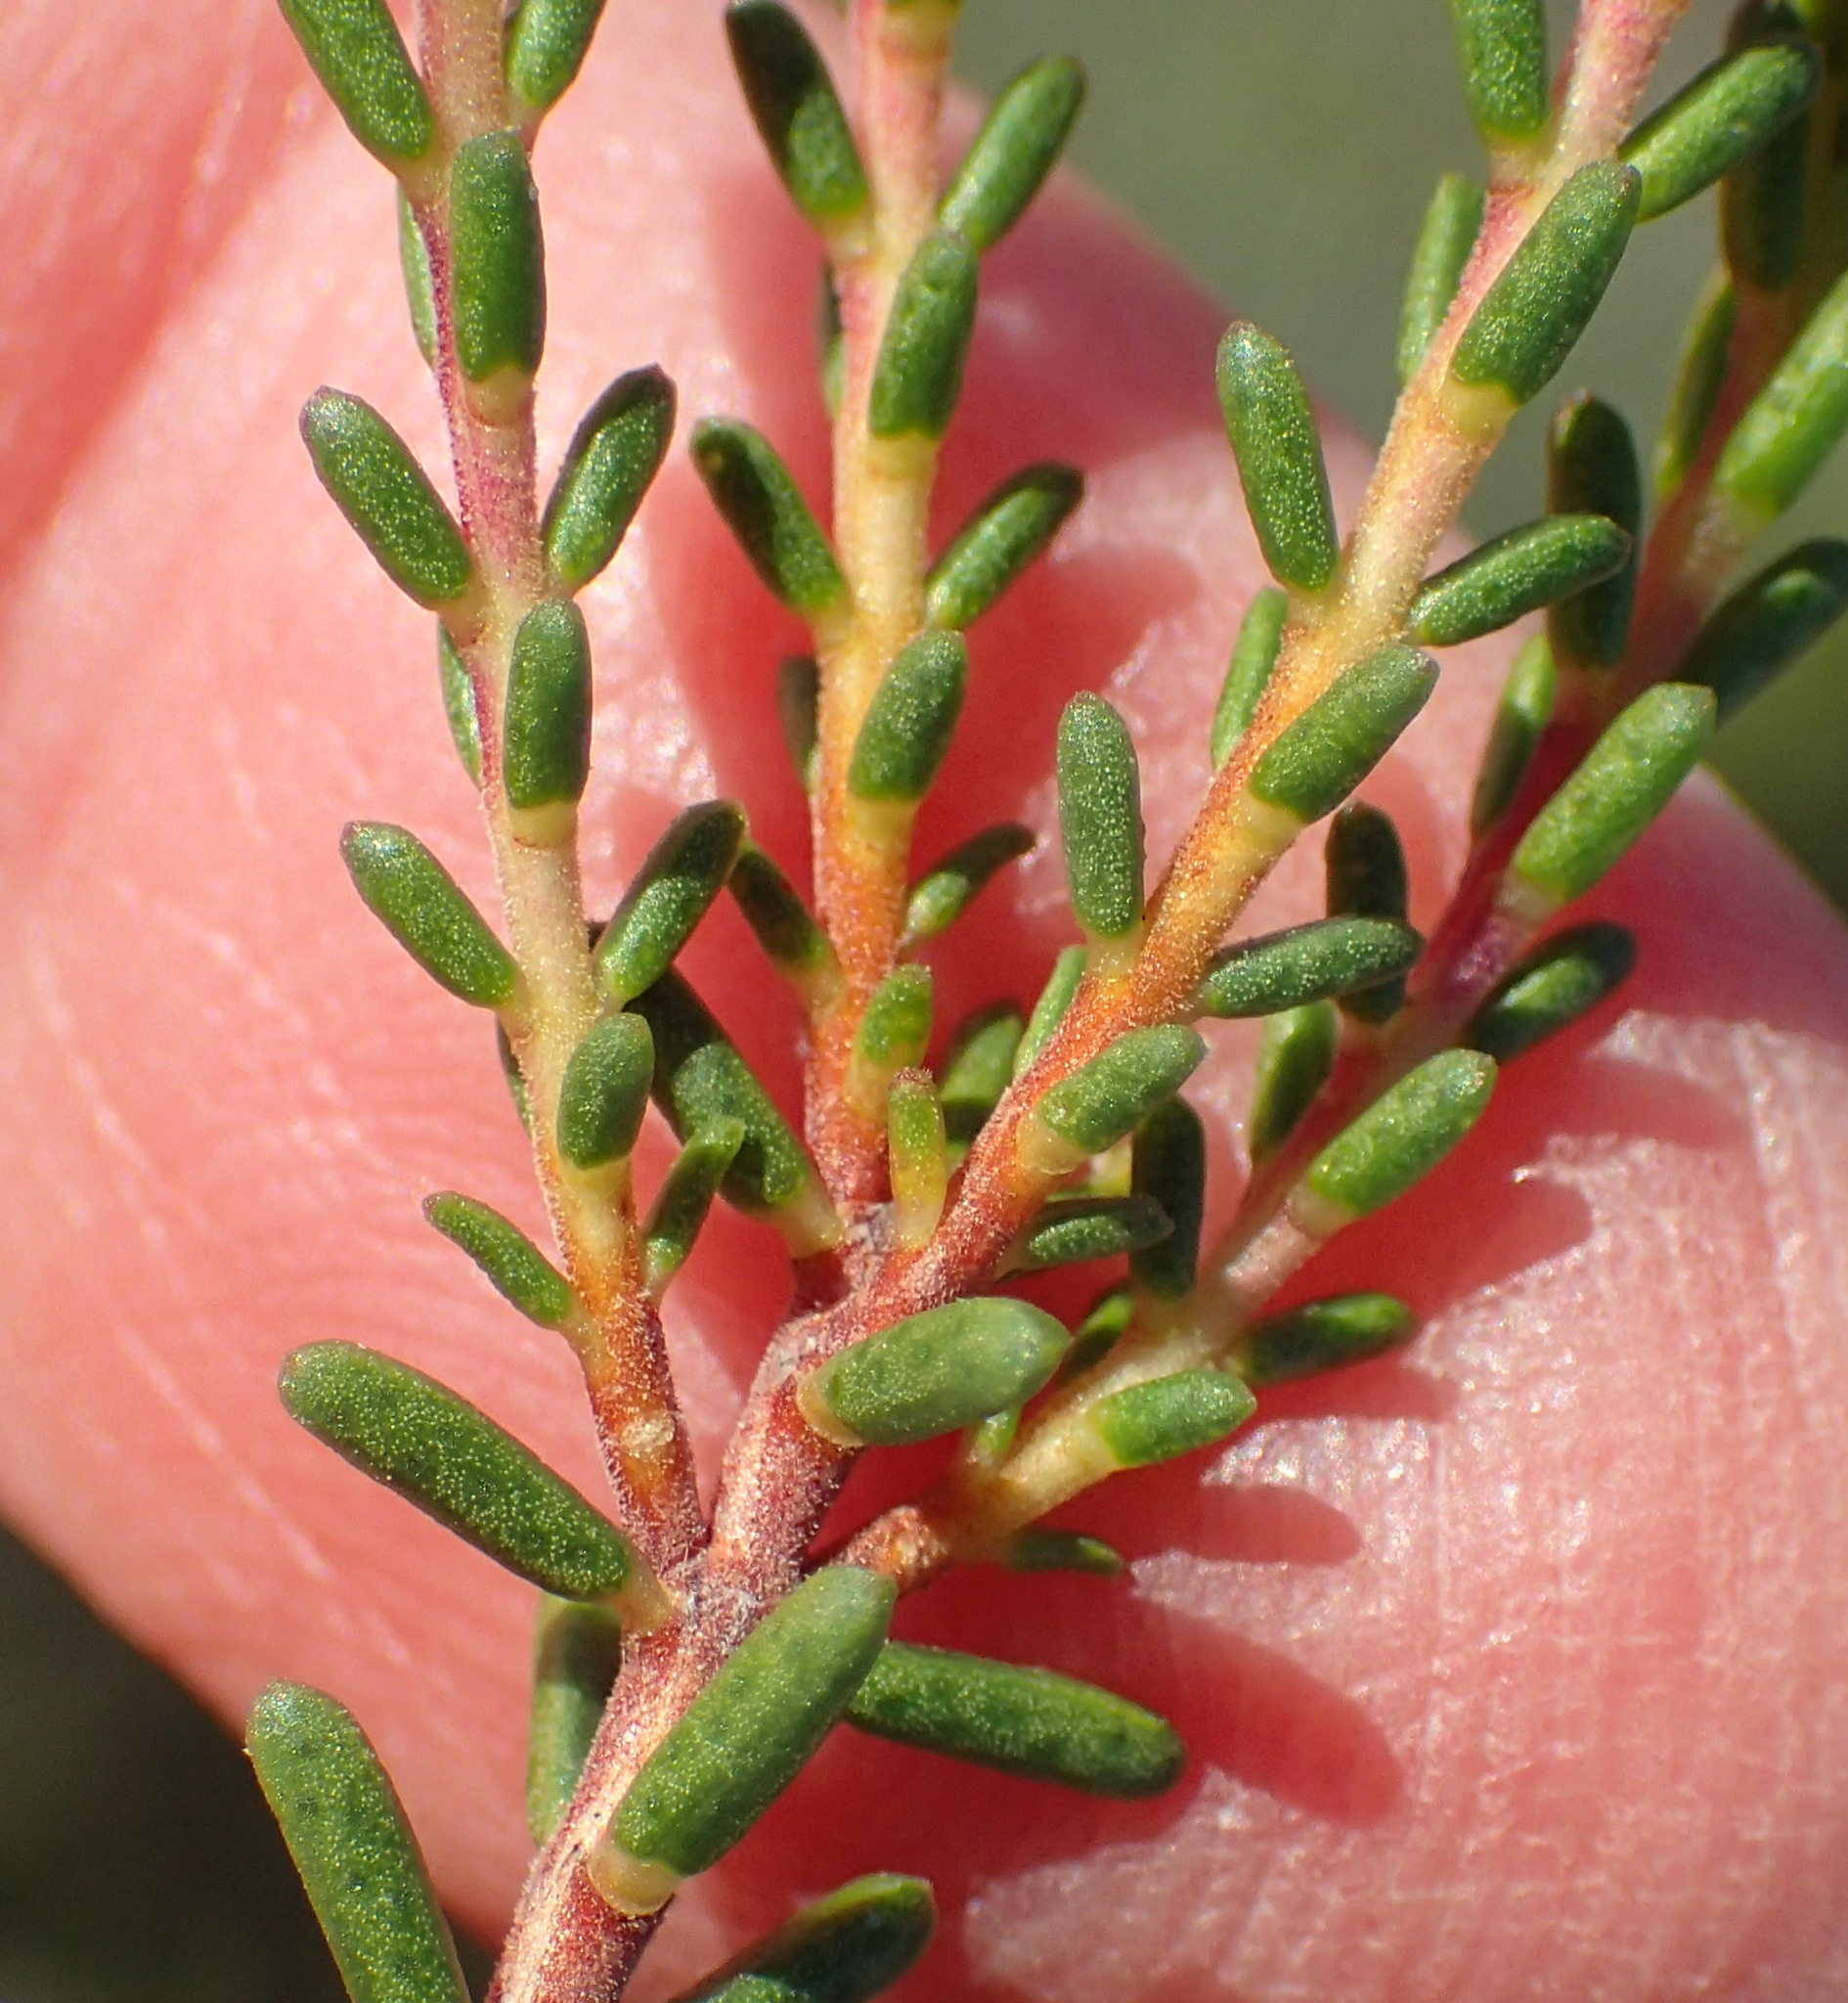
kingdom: Plantae
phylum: Tracheophyta
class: Magnoliopsida
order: Sapindales
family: Rutaceae
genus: Acmadenia
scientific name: Acmadenia sheilae
